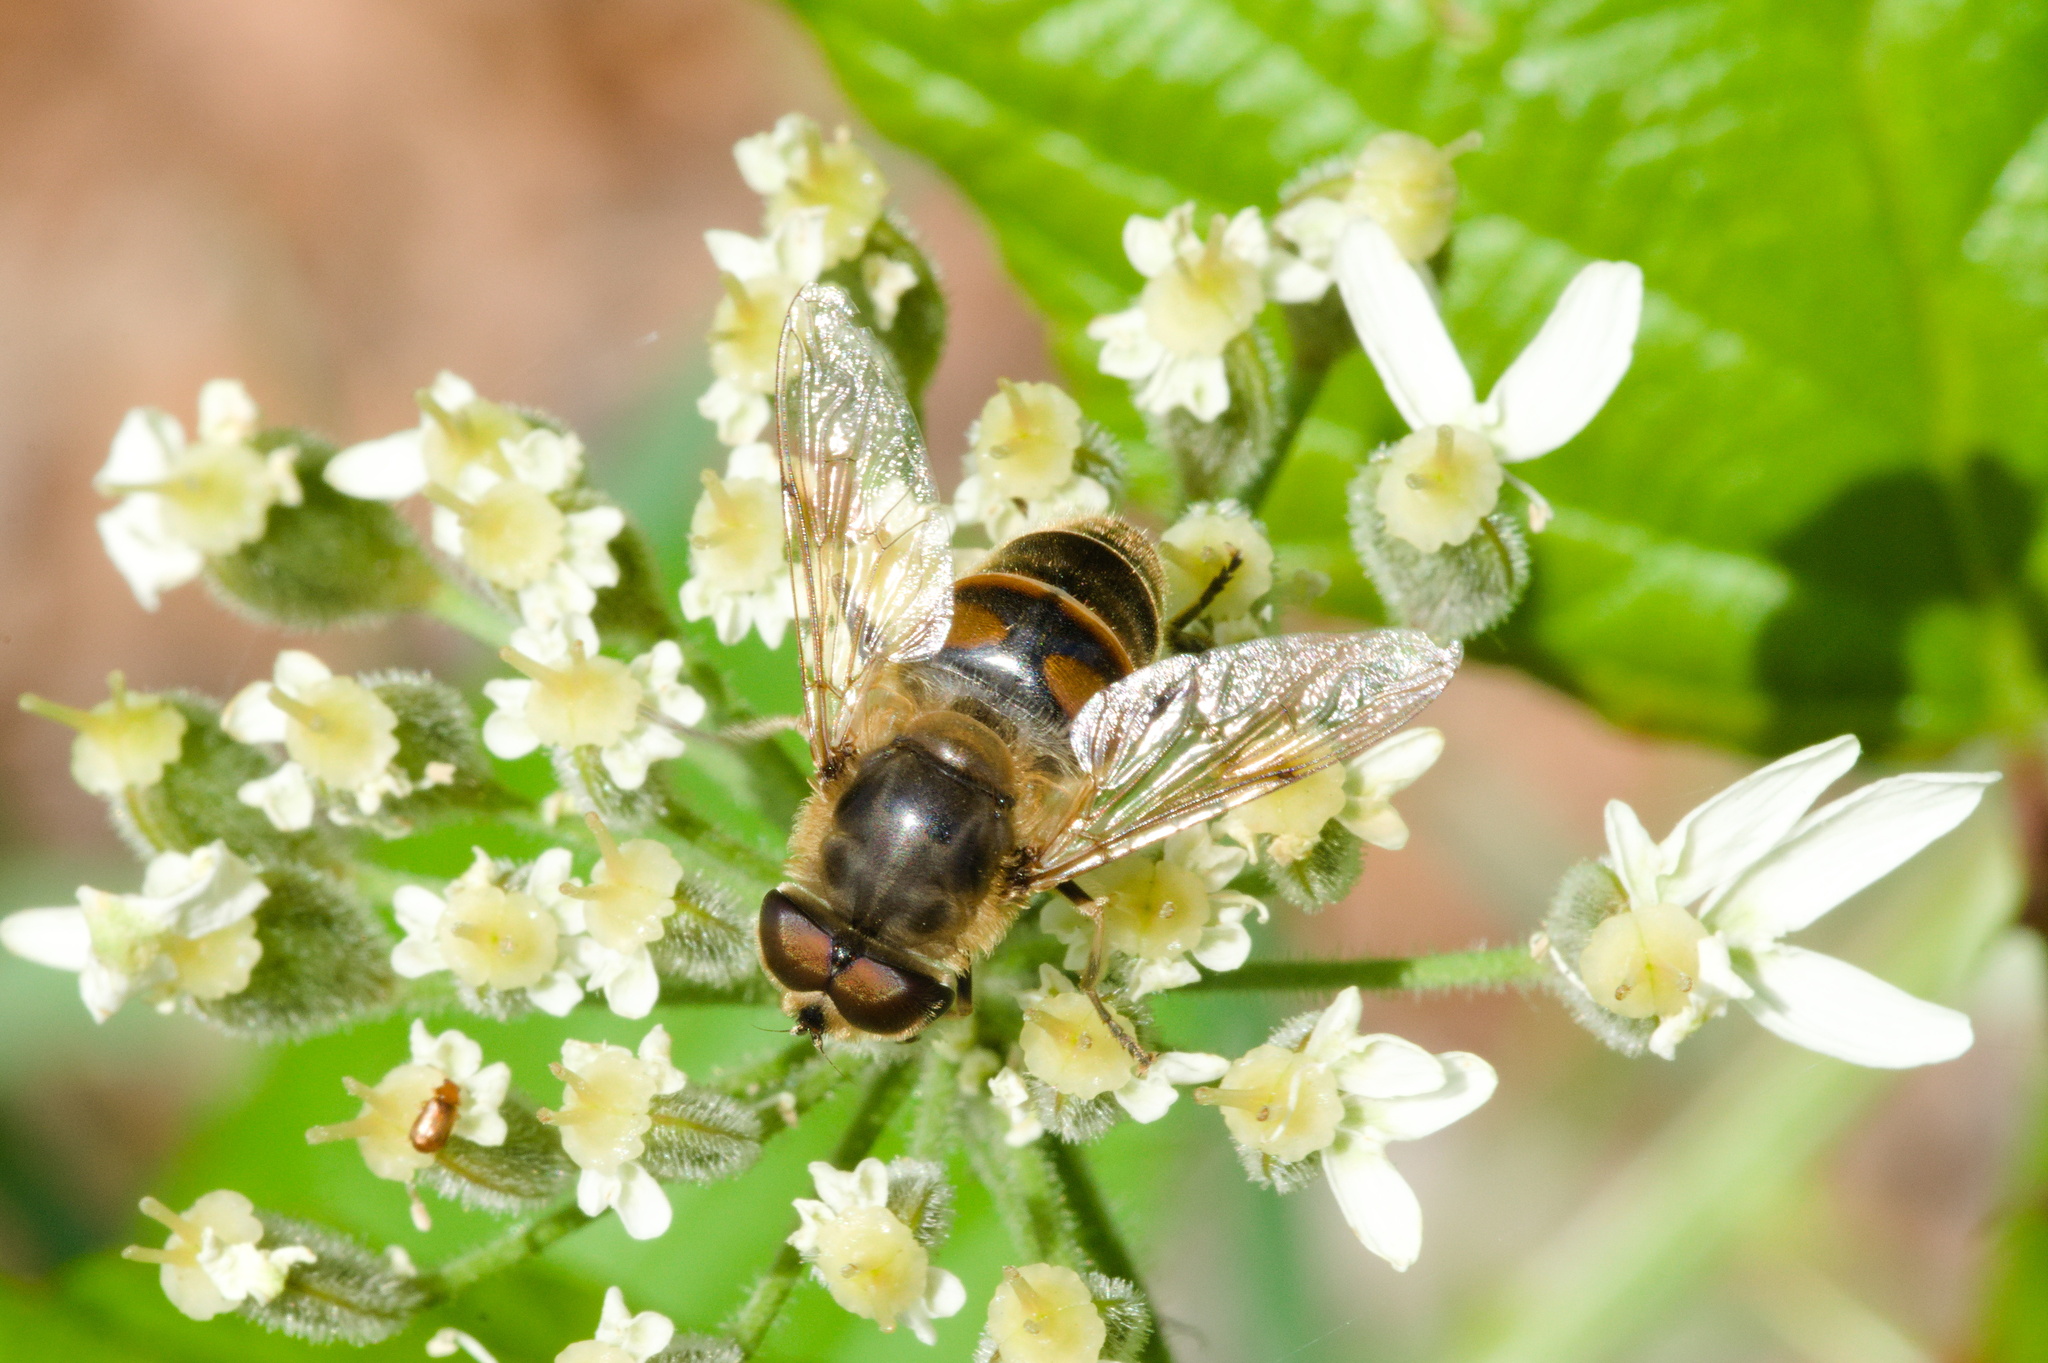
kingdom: Animalia
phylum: Arthropoda
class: Insecta
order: Diptera
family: Syrphidae
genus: Eristalis
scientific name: Eristalis tenax
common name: Drone fly
